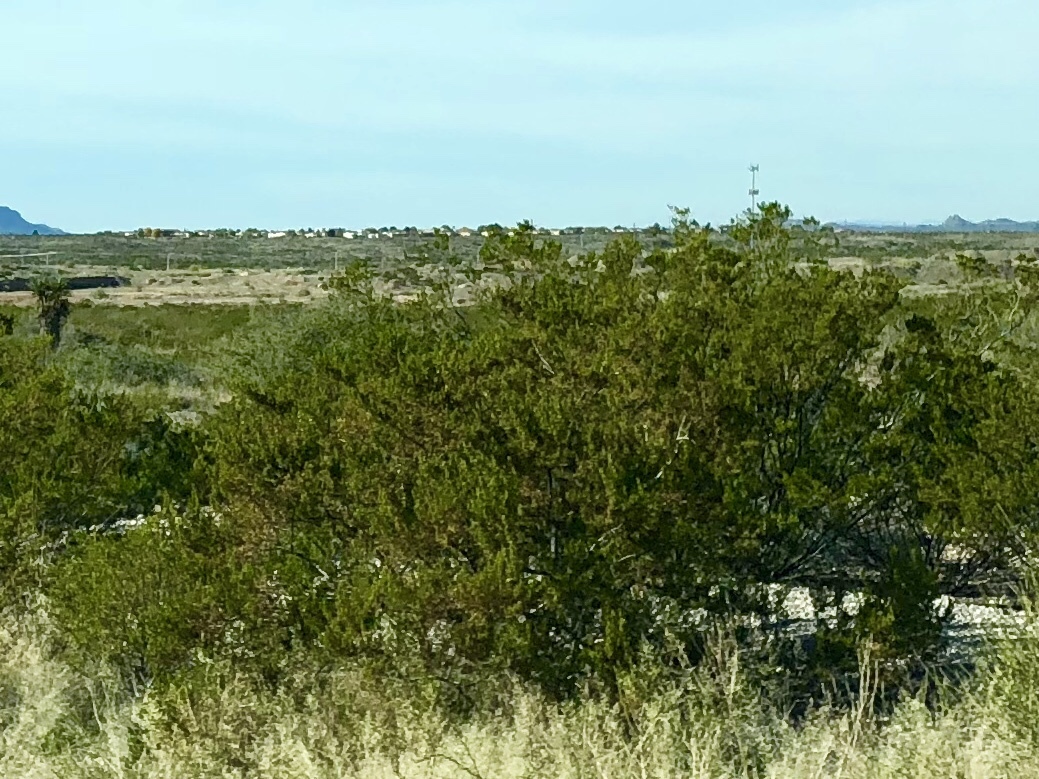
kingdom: Plantae
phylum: Tracheophyta
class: Magnoliopsida
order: Zygophyllales
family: Zygophyllaceae
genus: Larrea
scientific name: Larrea tridentata
